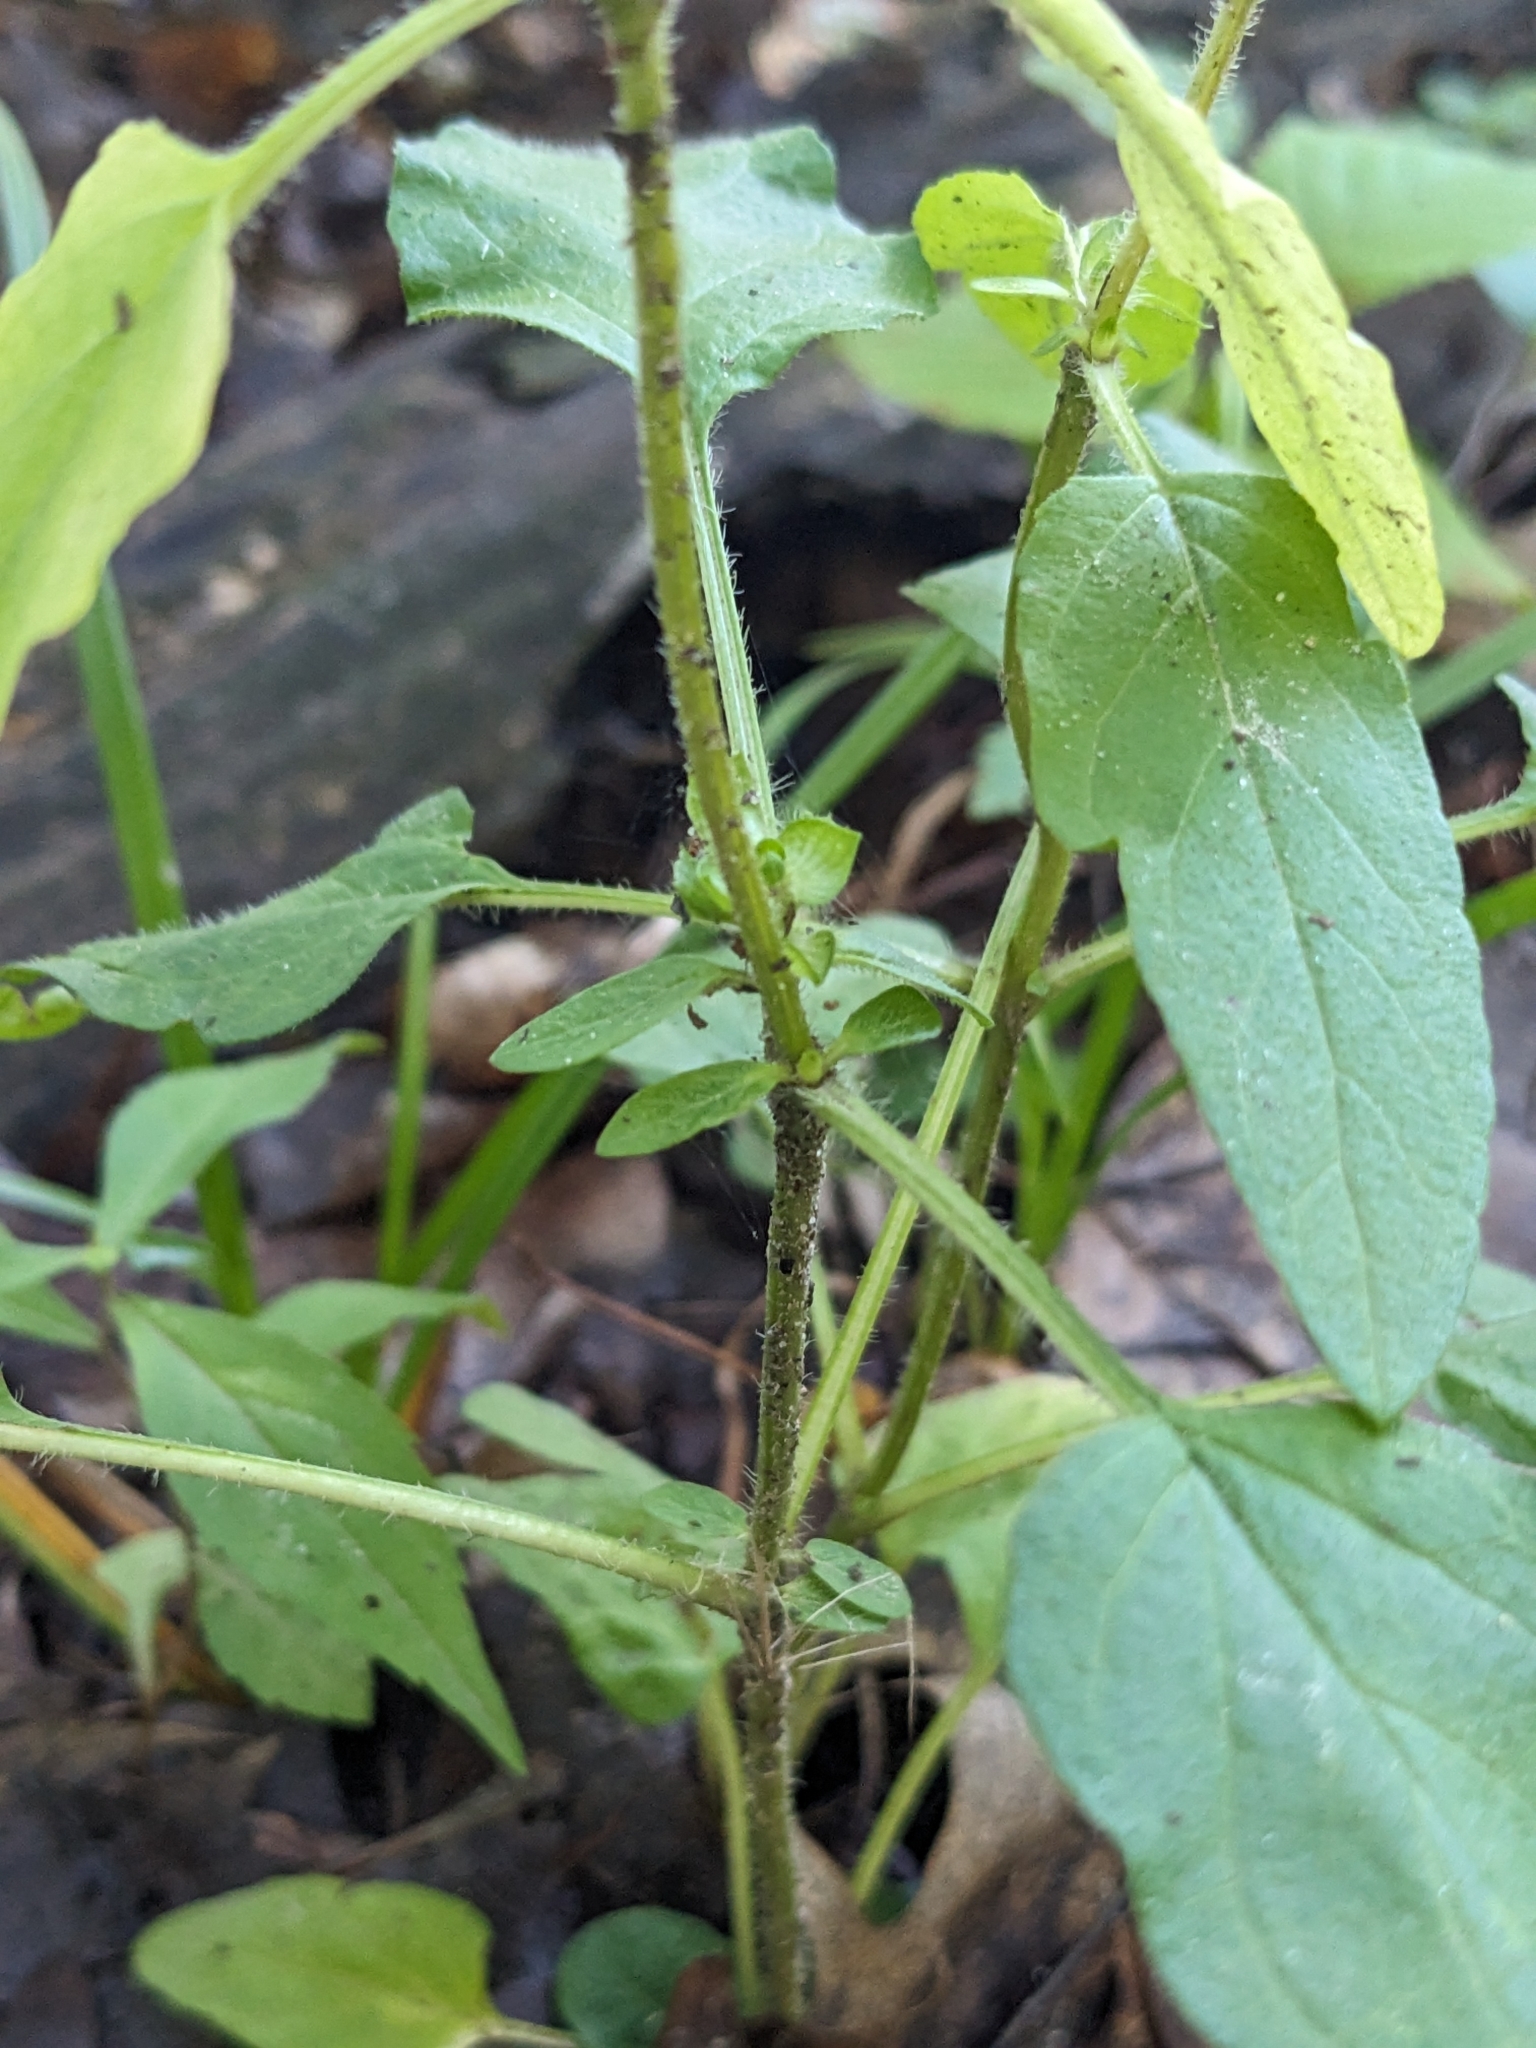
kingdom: Plantae
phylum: Tracheophyta
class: Magnoliopsida
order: Lamiales
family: Lamiaceae
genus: Prunella
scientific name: Prunella vulgaris
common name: Heal-all
